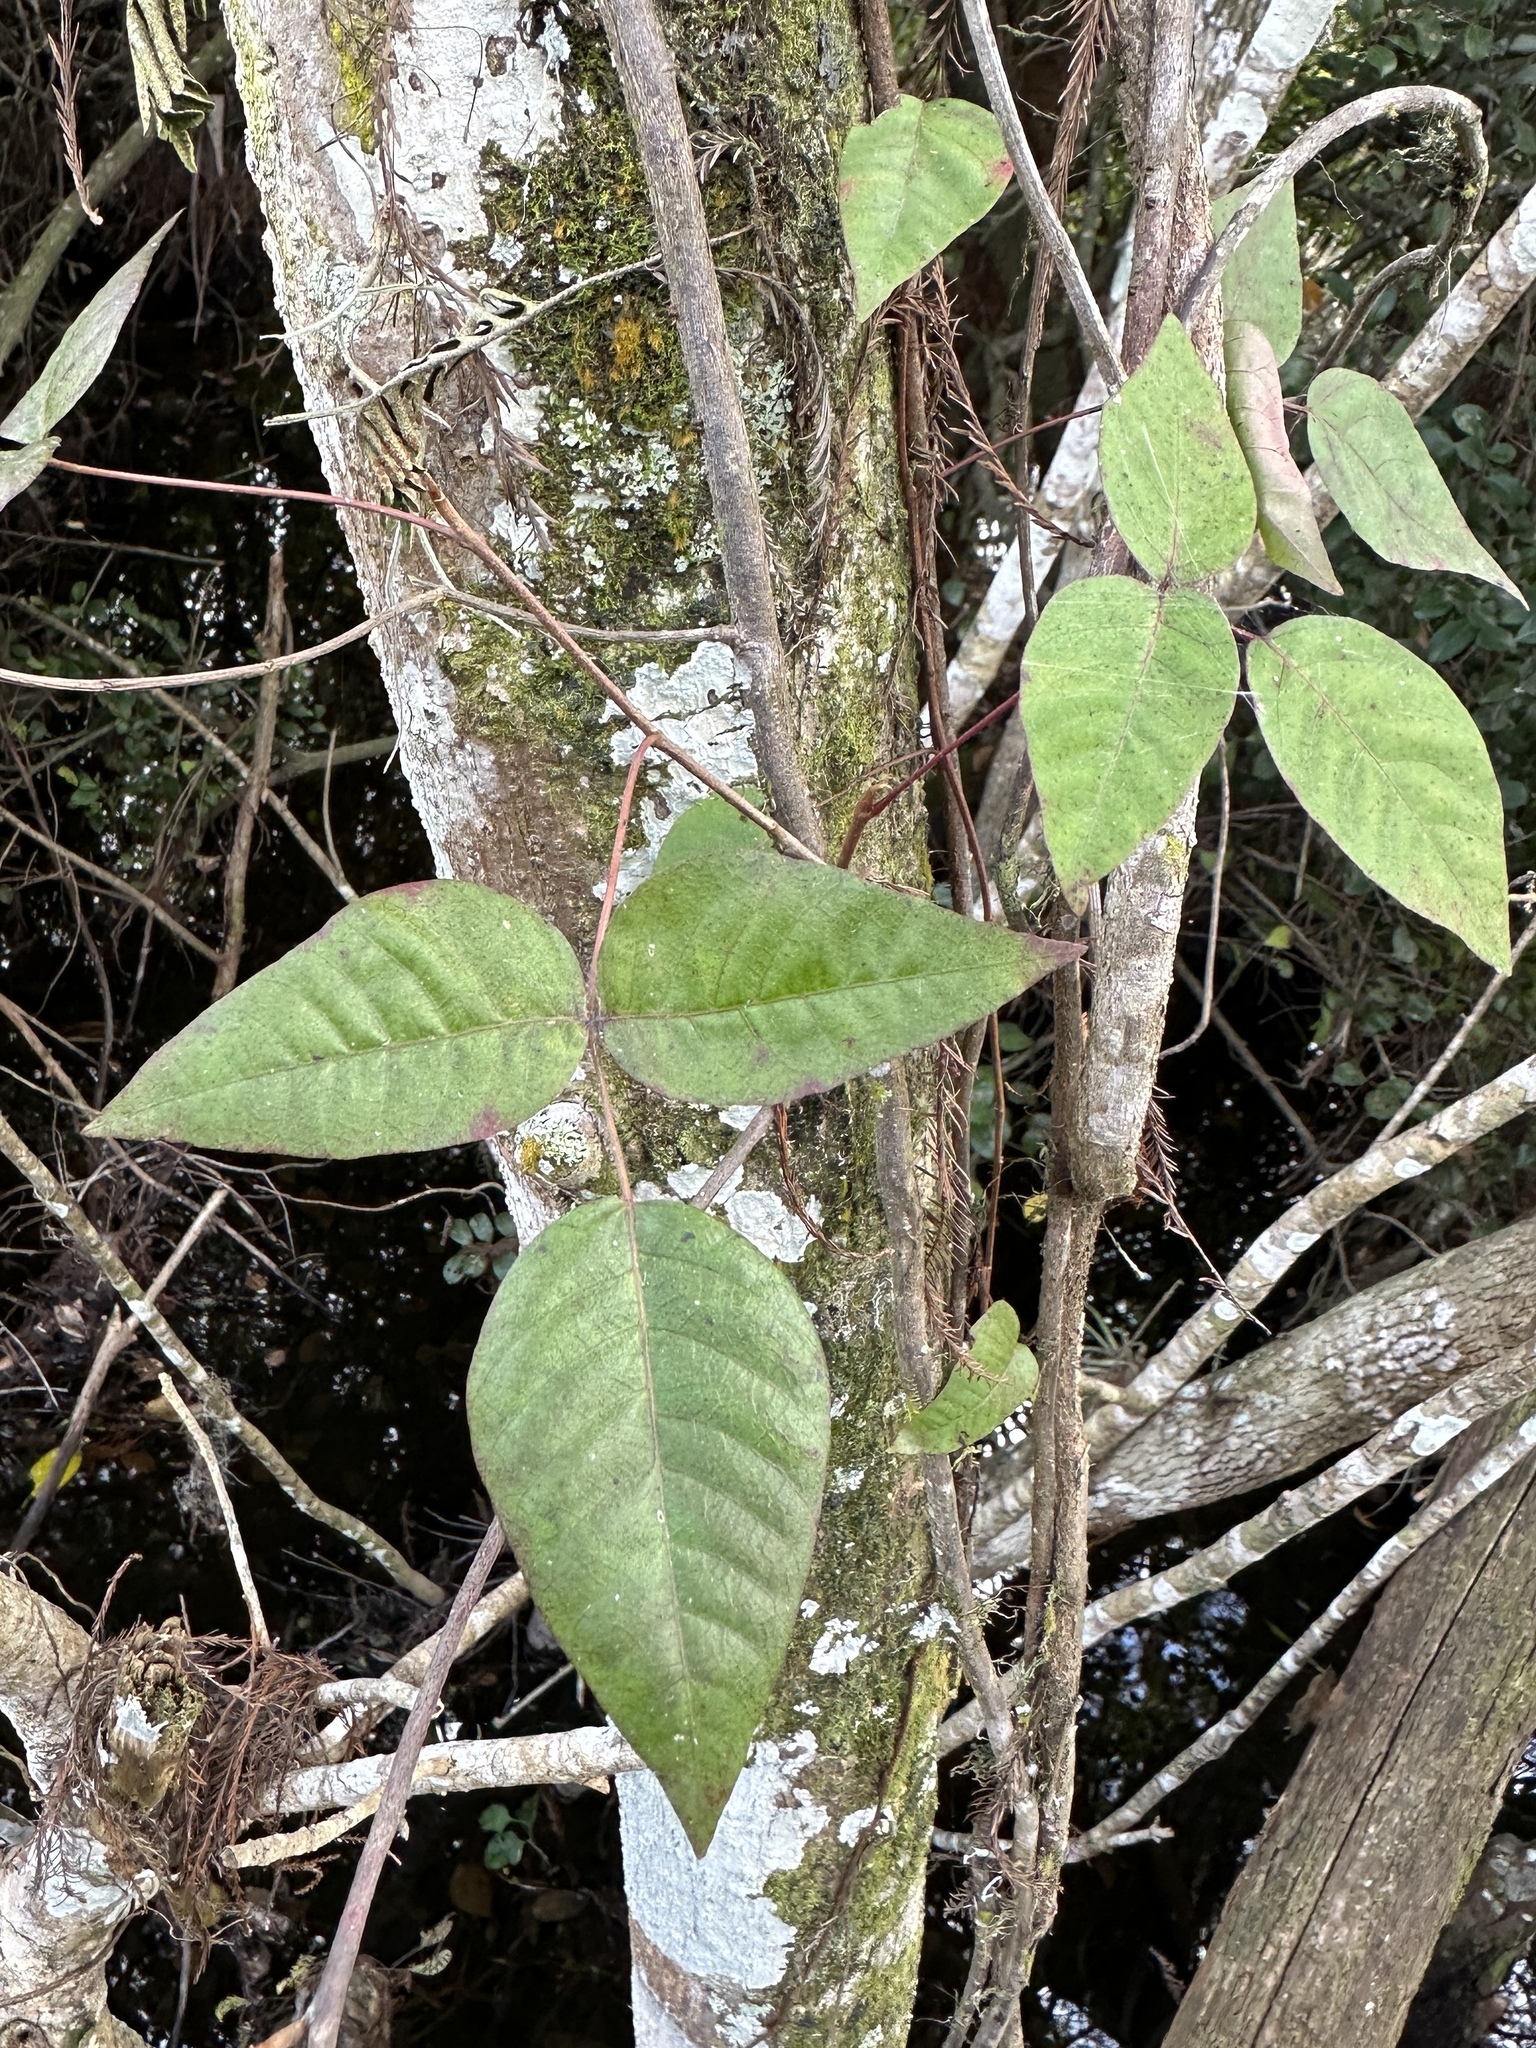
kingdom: Plantae
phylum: Tracheophyta
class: Magnoliopsida
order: Sapindales
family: Anacardiaceae
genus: Toxicodendron
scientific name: Toxicodendron radicans
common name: Poison ivy
